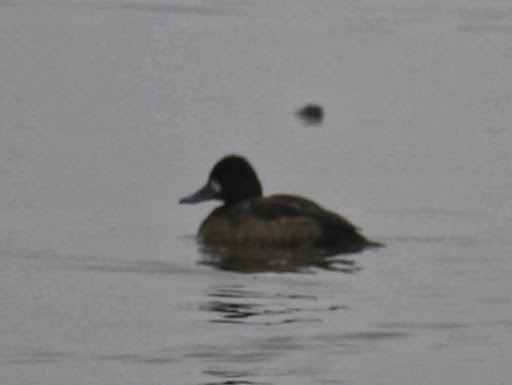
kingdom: Animalia
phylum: Chordata
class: Aves
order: Anseriformes
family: Anatidae
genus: Aythya
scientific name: Aythya affinis
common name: Lesser scaup
